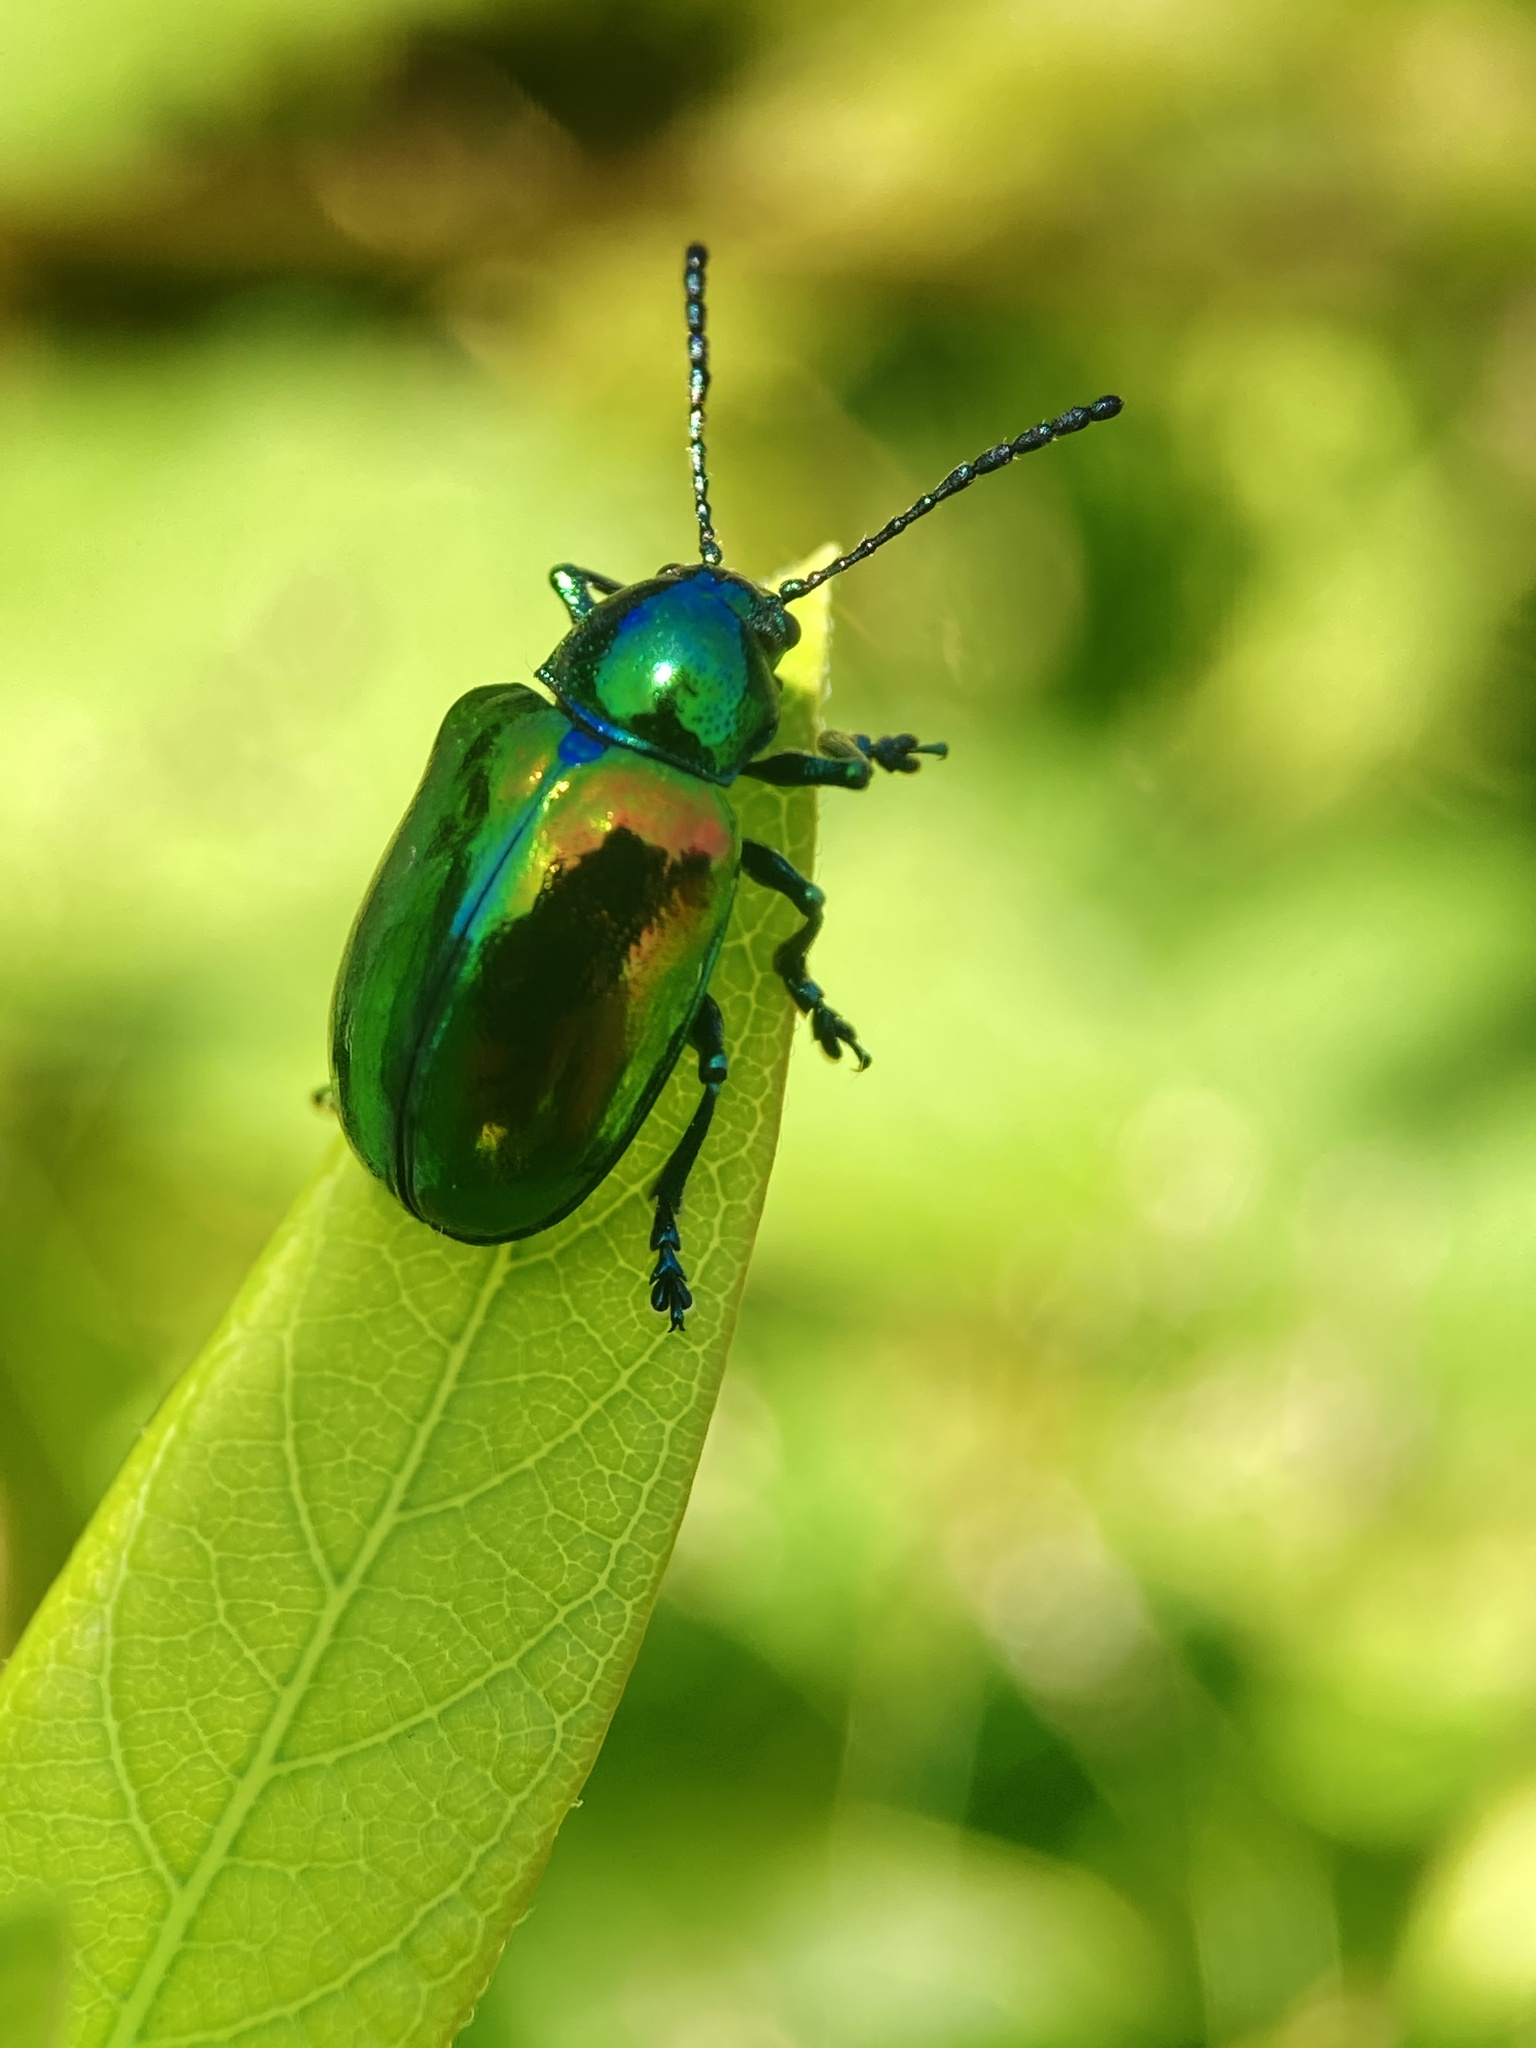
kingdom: Animalia
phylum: Arthropoda
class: Insecta
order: Coleoptera
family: Chrysomelidae
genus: Chrysochus
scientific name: Chrysochus auratus
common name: Dogbane leaf beetle
